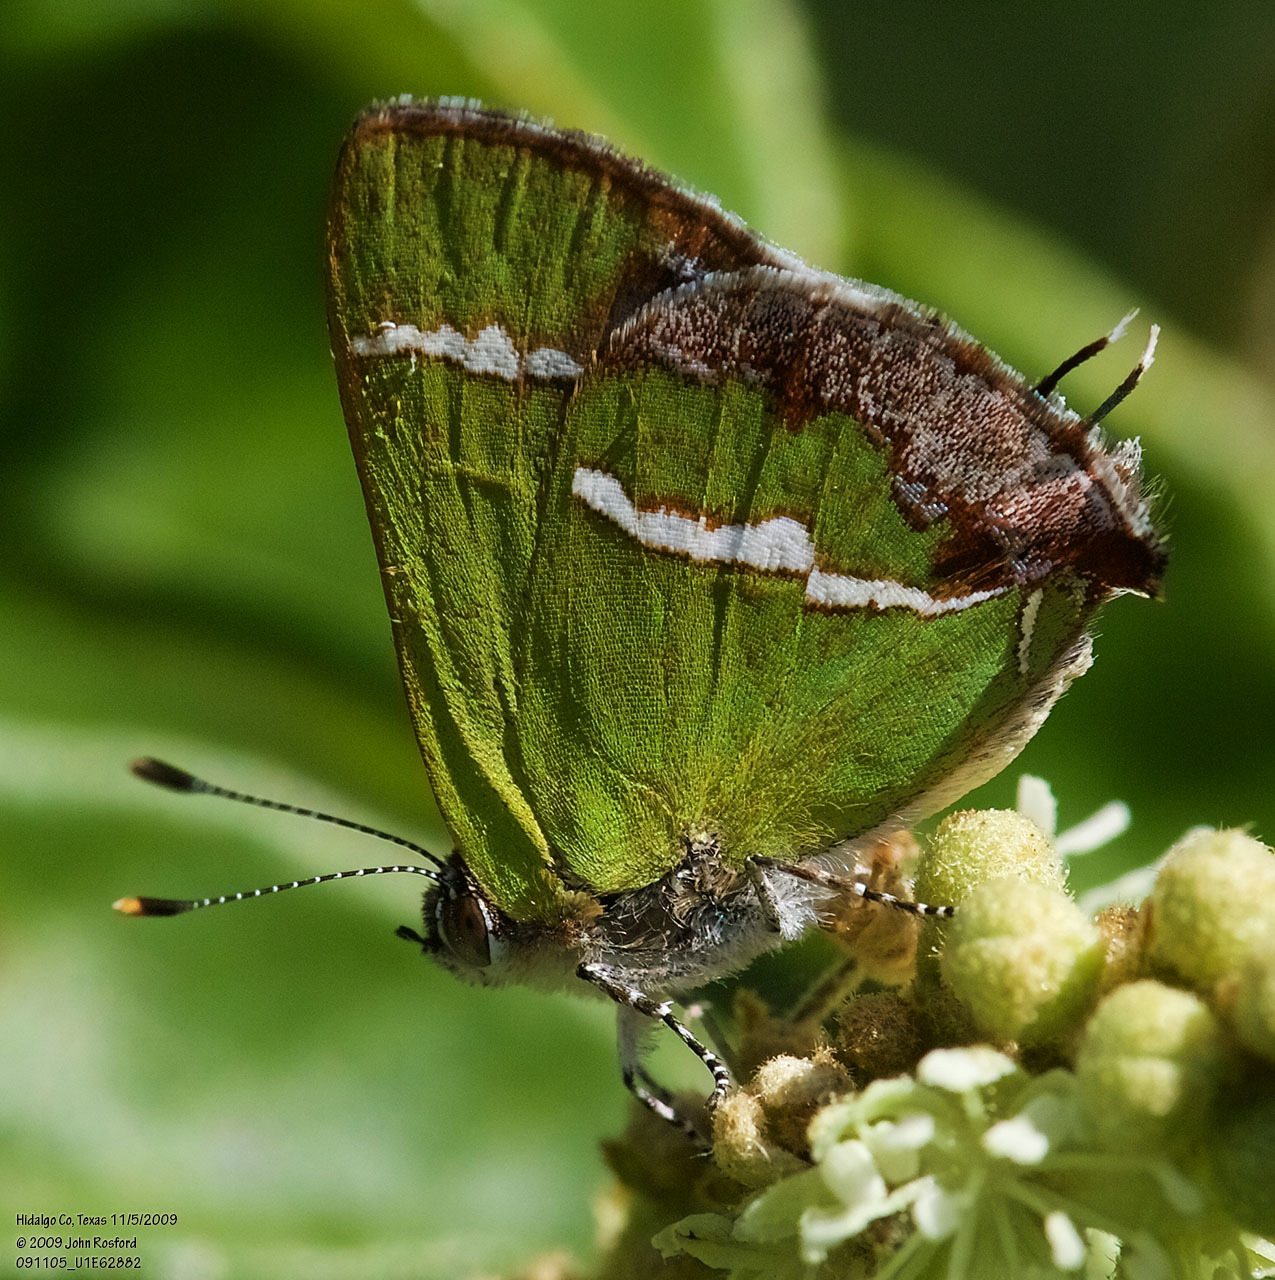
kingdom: Animalia
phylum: Arthropoda
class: Insecta
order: Lepidoptera
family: Lycaenidae
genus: Chlorostrymon
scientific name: Chlorostrymon simaethis
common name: Silver-banded hairstreak
